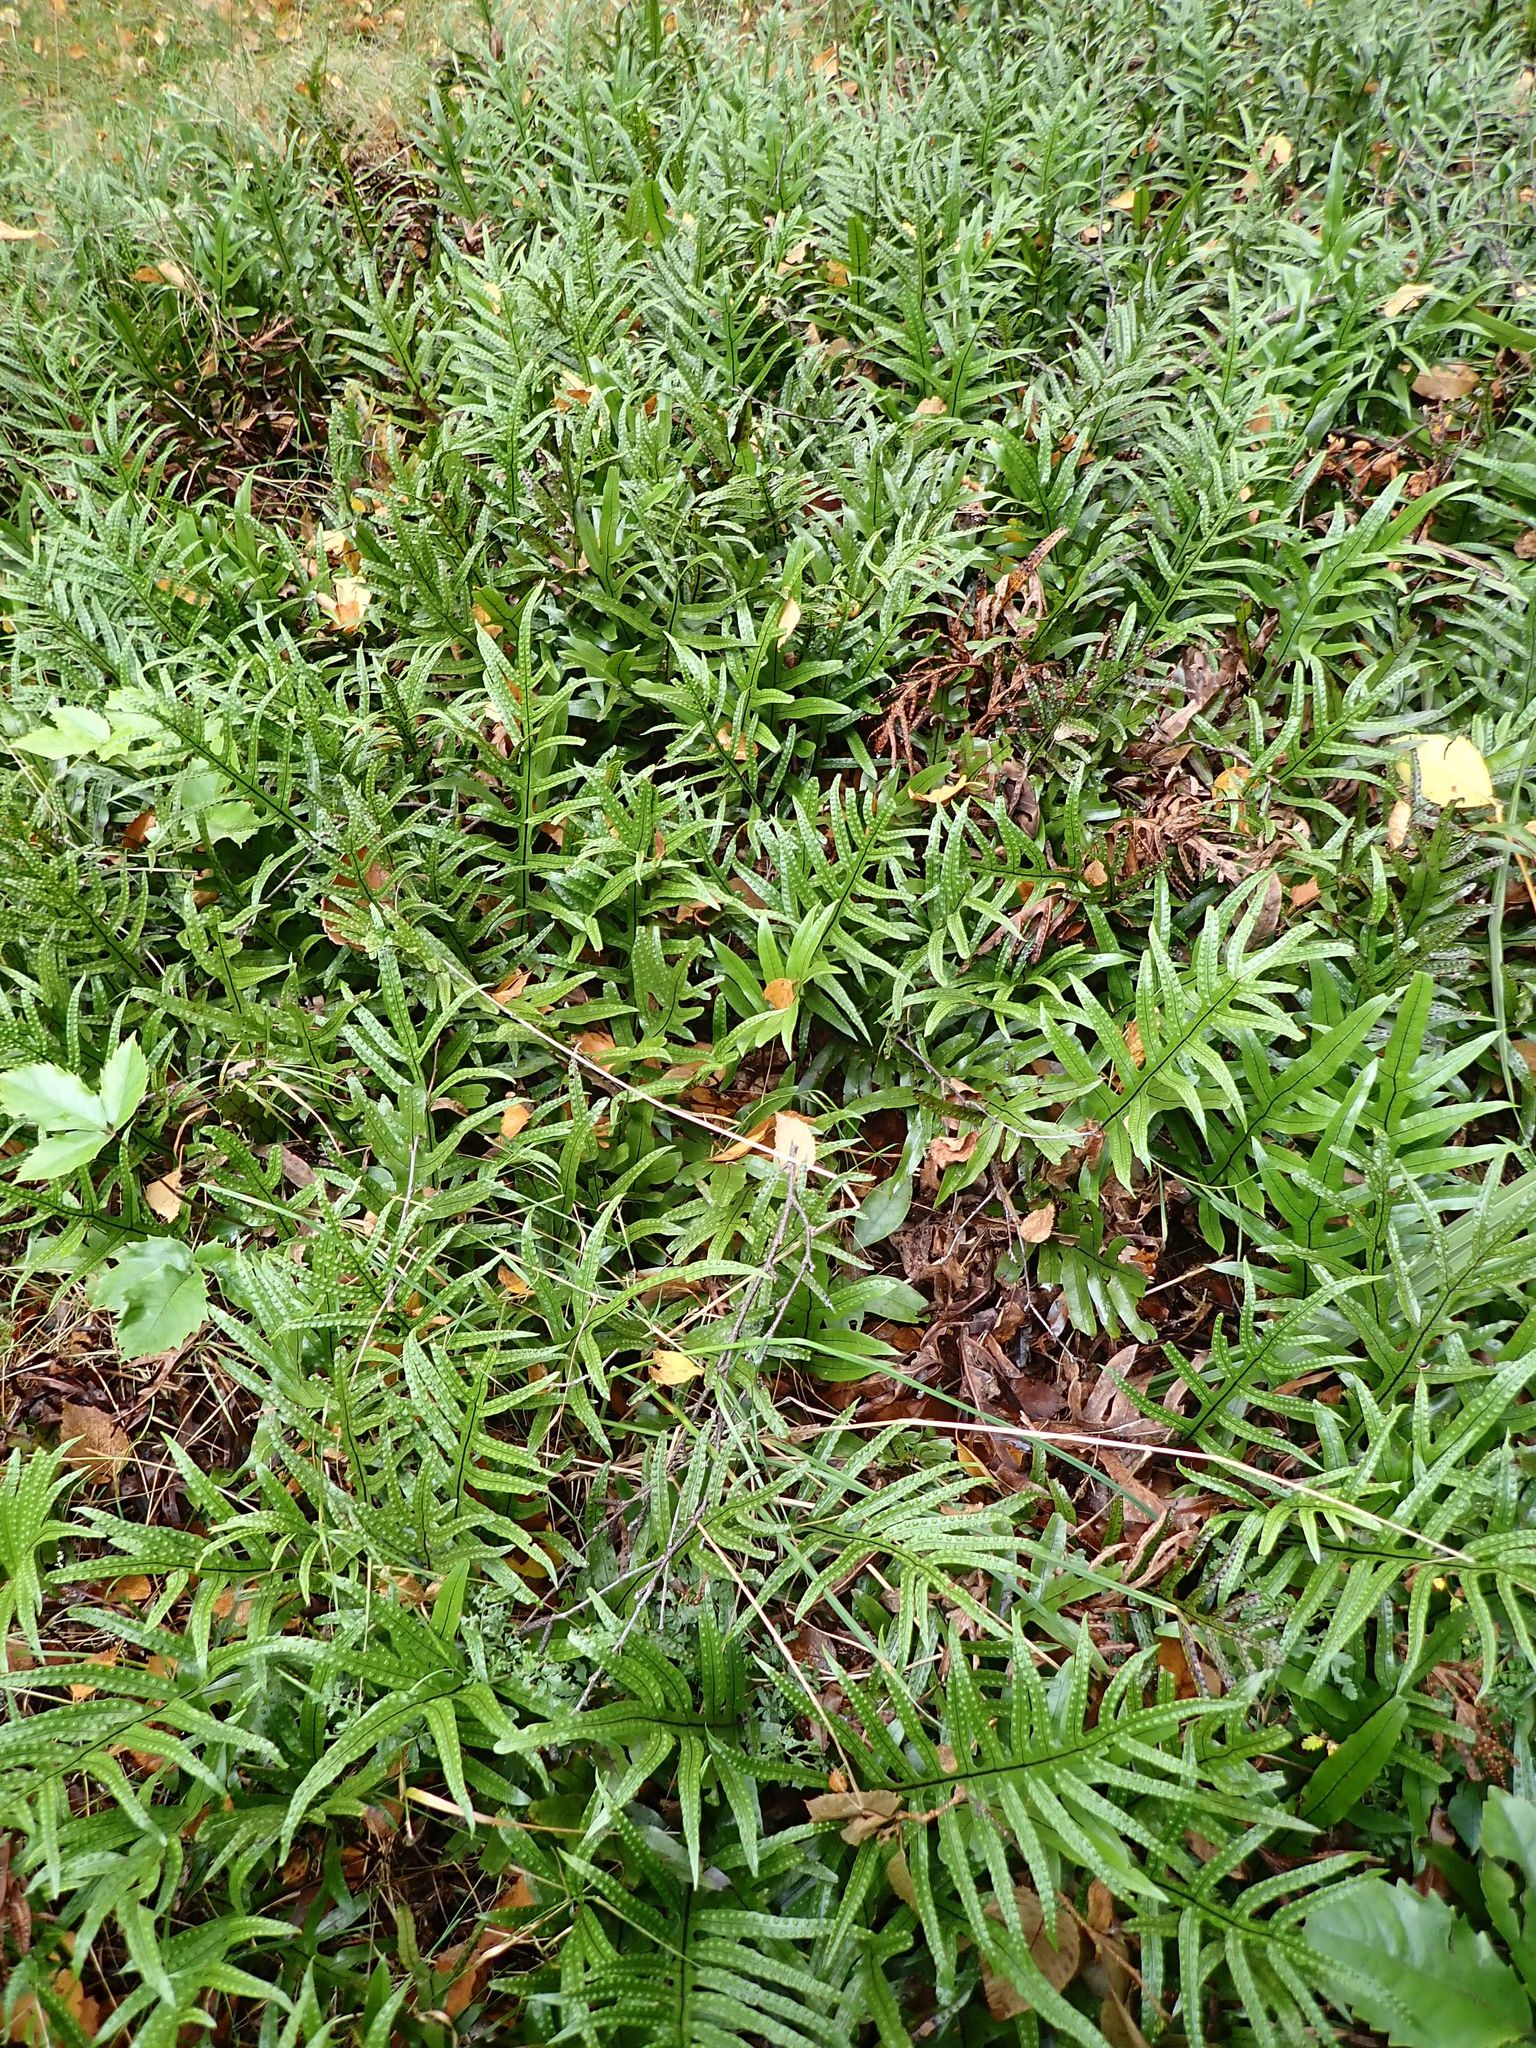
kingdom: Plantae
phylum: Tracheophyta
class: Polypodiopsida
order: Polypodiales
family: Polypodiaceae
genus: Lecanopteris
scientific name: Lecanopteris pustulata
